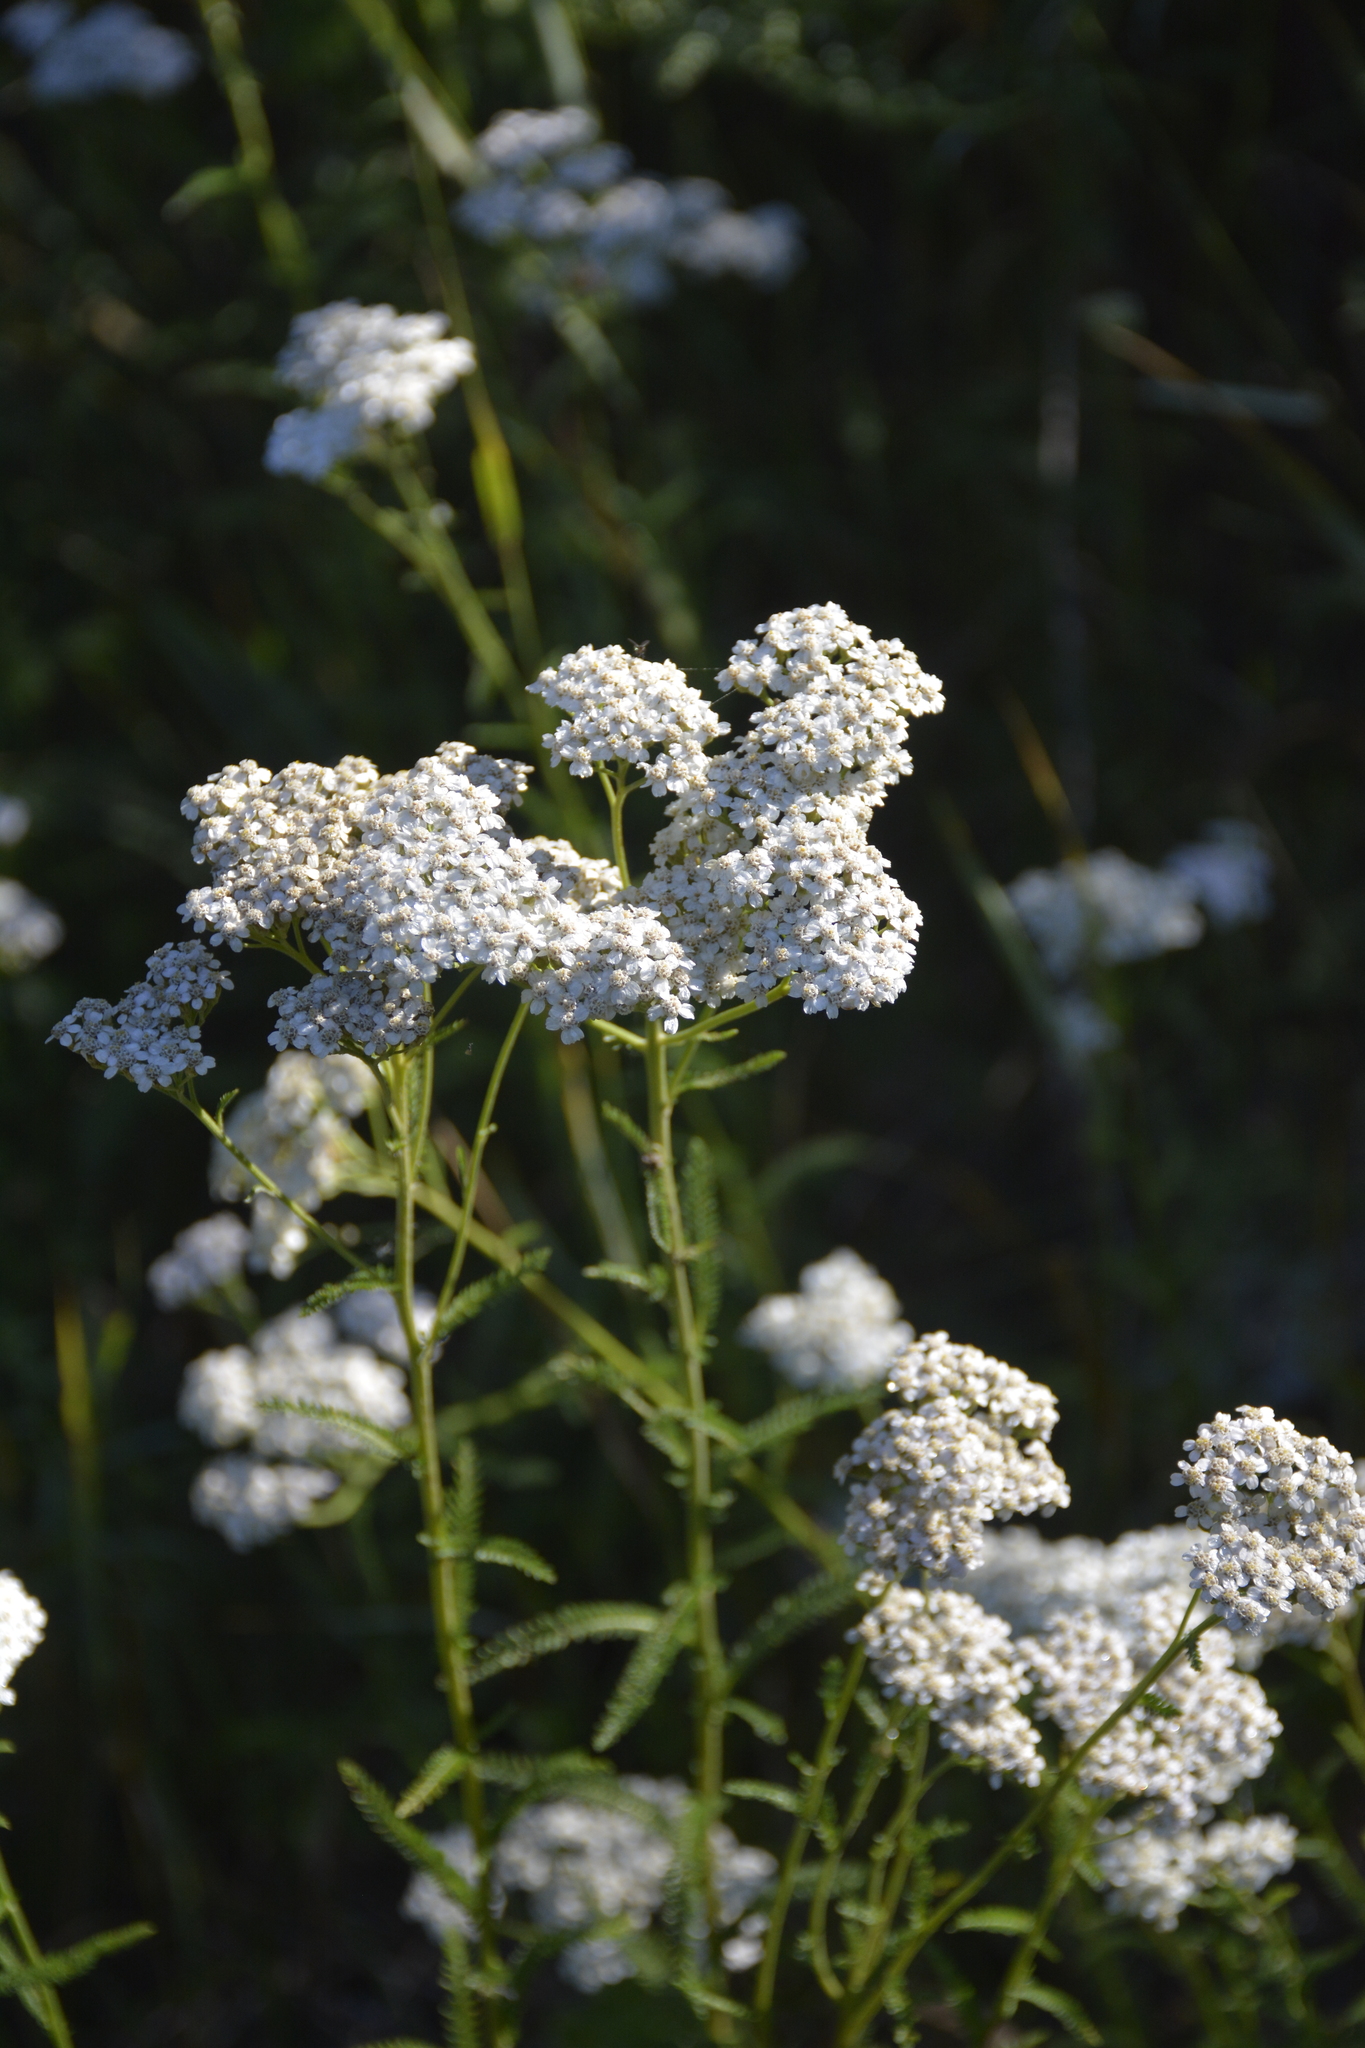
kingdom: Plantae
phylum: Tracheophyta
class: Magnoliopsida
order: Asterales
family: Asteraceae
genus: Achillea
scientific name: Achillea millefolium
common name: Yarrow
